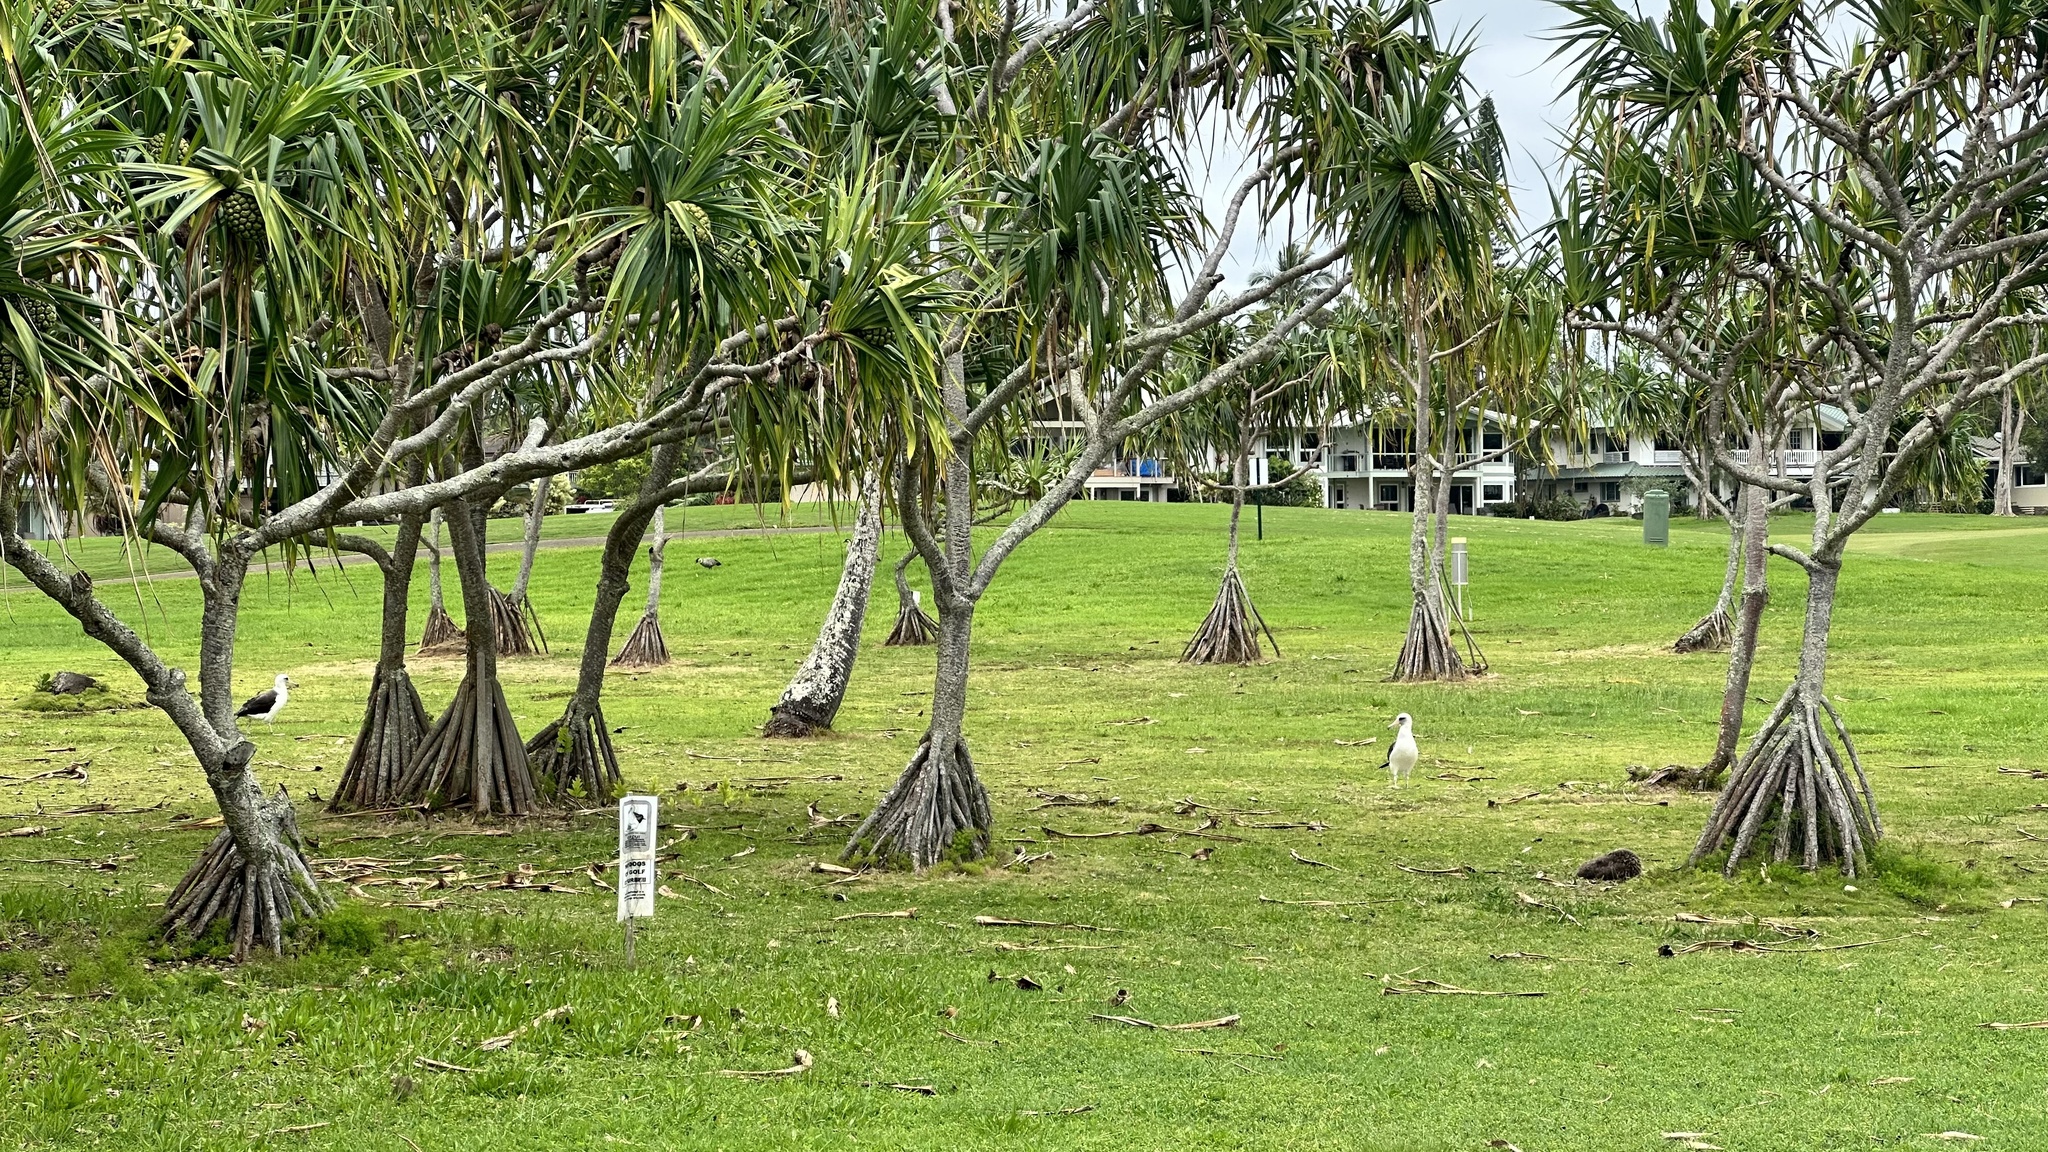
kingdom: Animalia
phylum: Chordata
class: Aves
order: Procellariiformes
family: Diomedeidae
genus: Phoebastria
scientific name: Phoebastria immutabilis
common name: Laysan albatross
